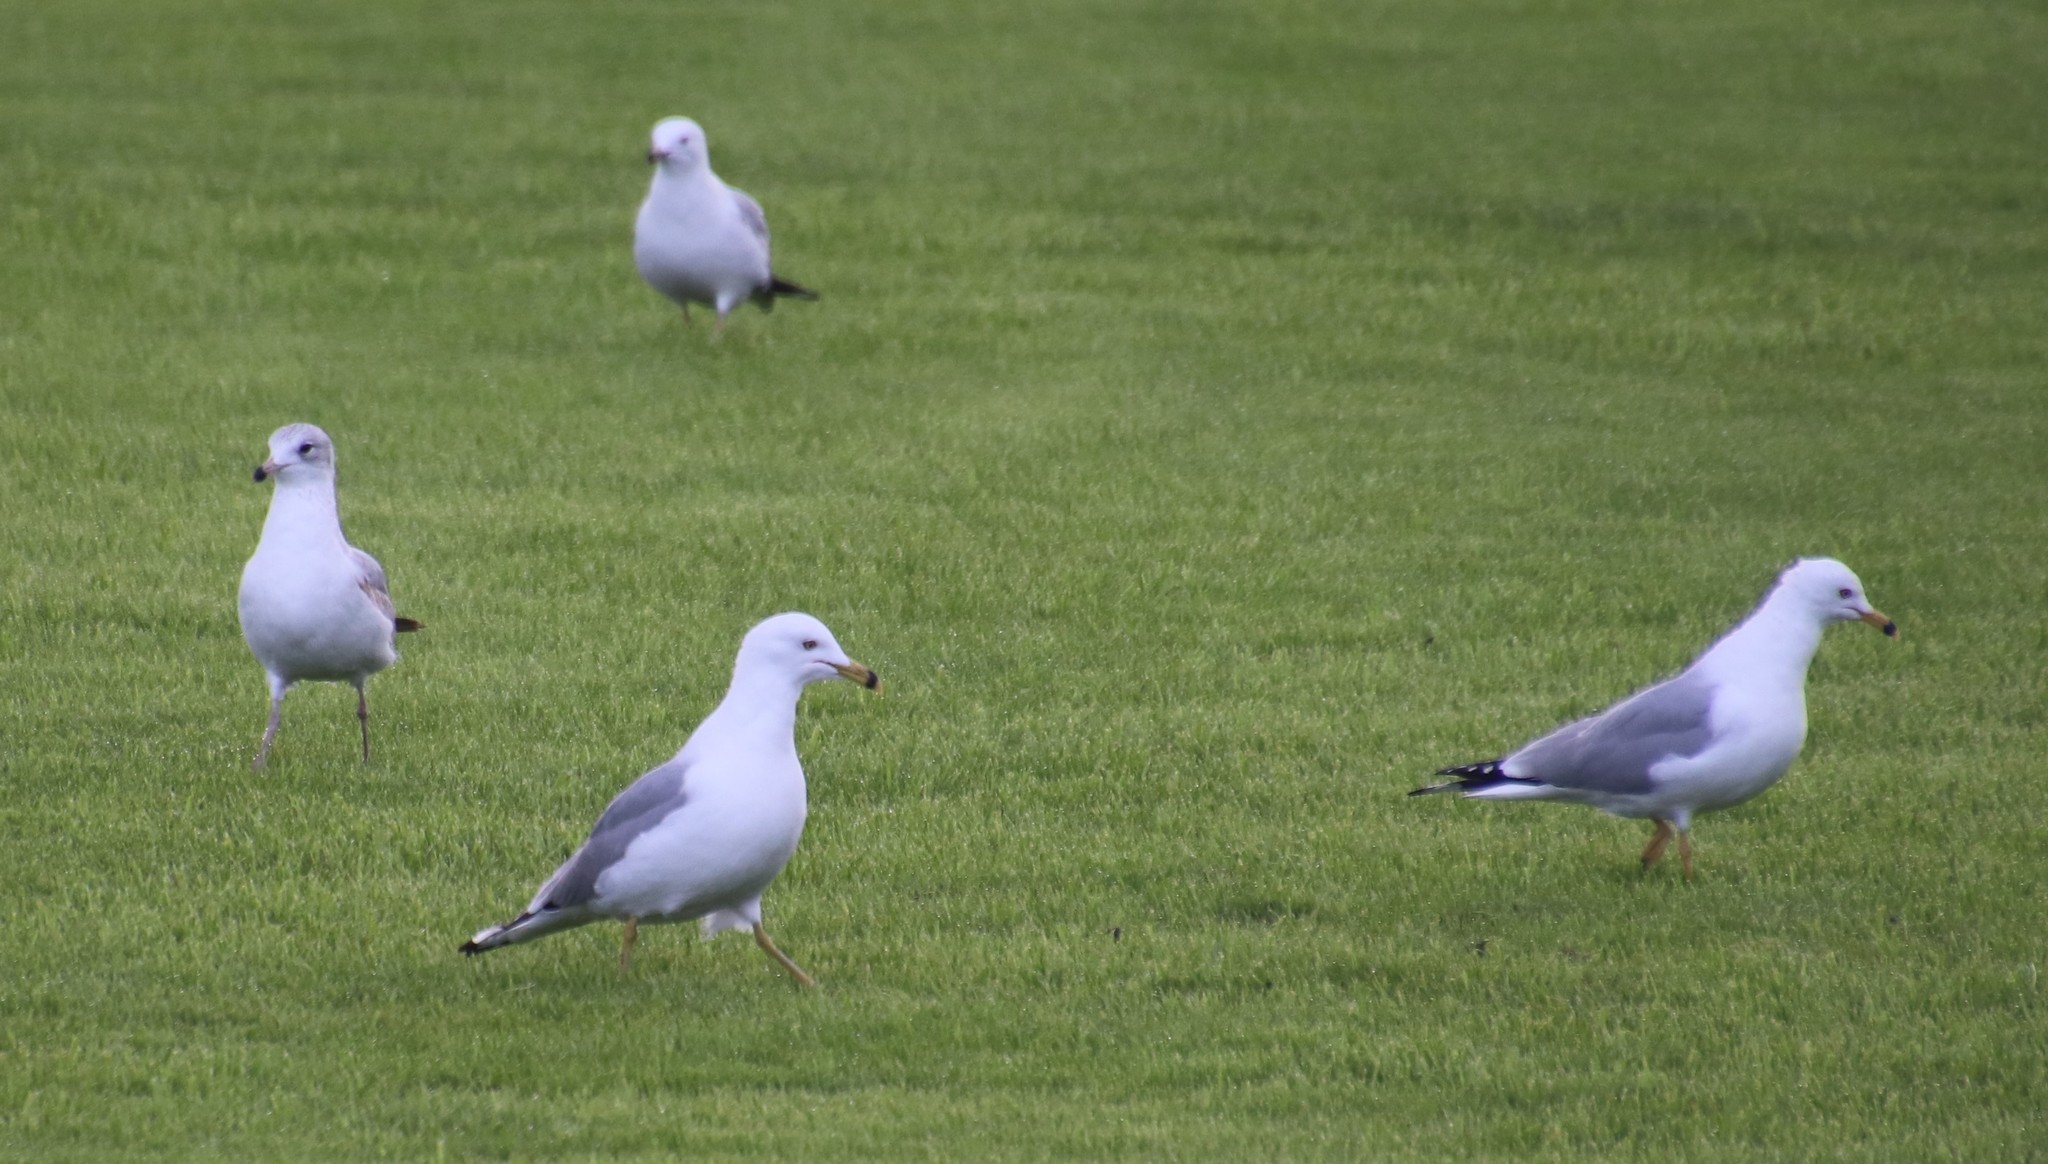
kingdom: Animalia
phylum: Chordata
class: Aves
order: Charadriiformes
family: Laridae
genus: Larus
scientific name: Larus delawarensis
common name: Ring-billed gull
